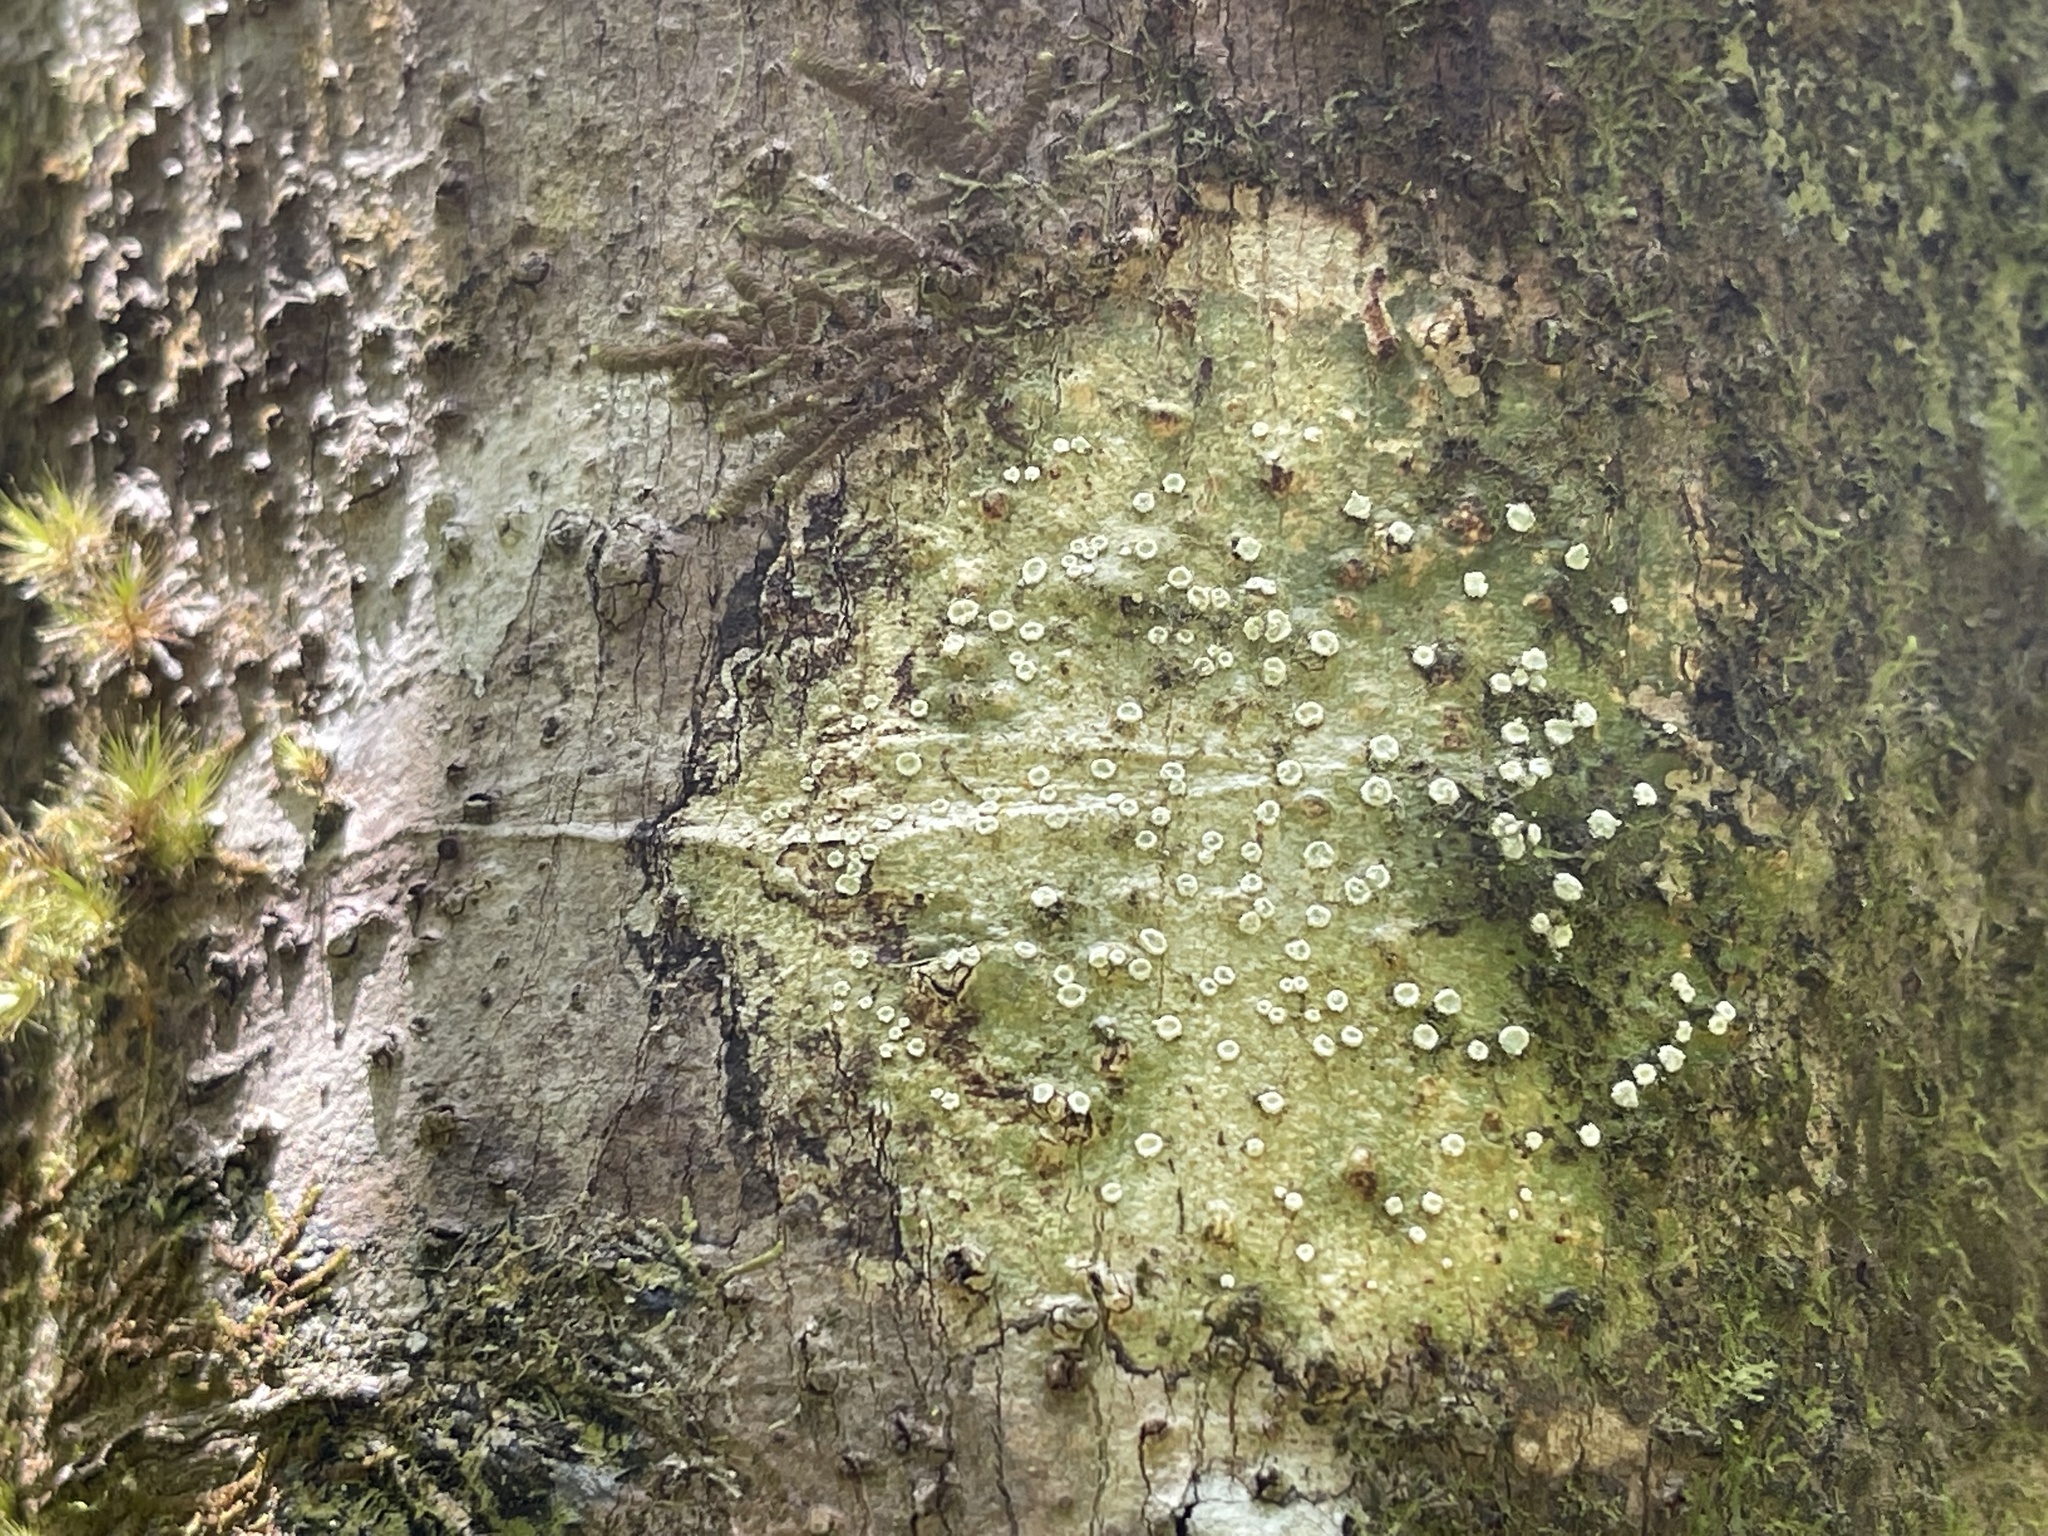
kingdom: Fungi
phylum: Ascomycota
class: Lecanoromycetes
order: Ostropales
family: Graphidaceae
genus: Chapsa
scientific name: Chapsa thallotrema
